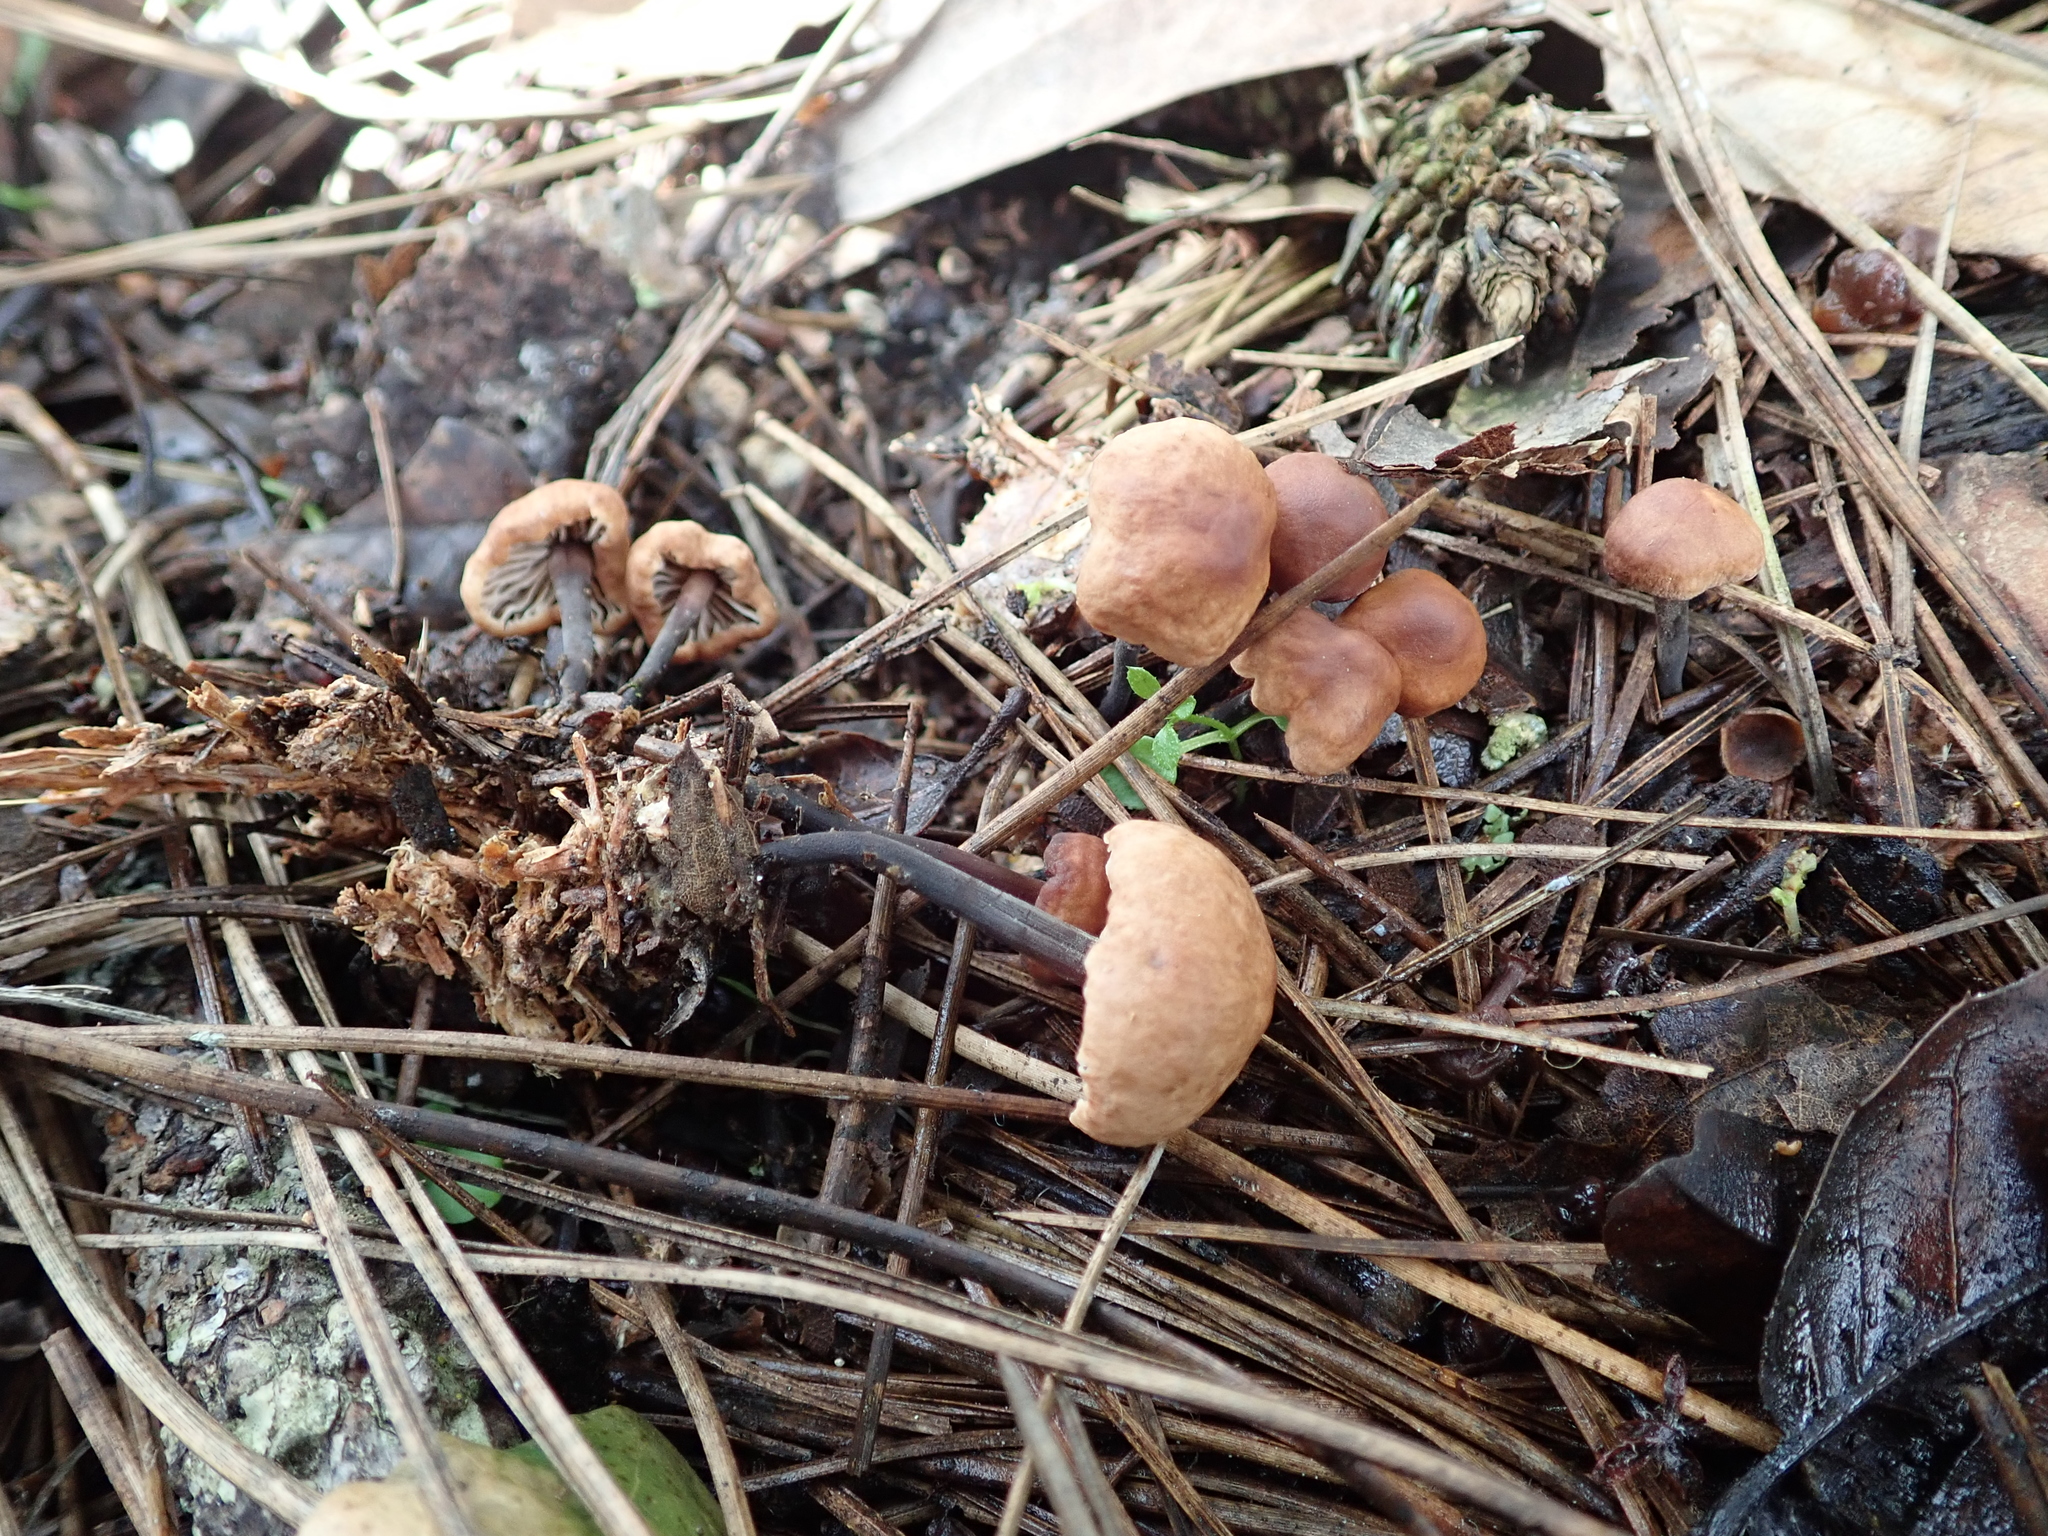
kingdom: Fungi
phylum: Basidiomycota
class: Agaricomycetes
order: Agaricales
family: Omphalotaceae
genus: Gymnopus
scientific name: Gymnopus brassicolens
